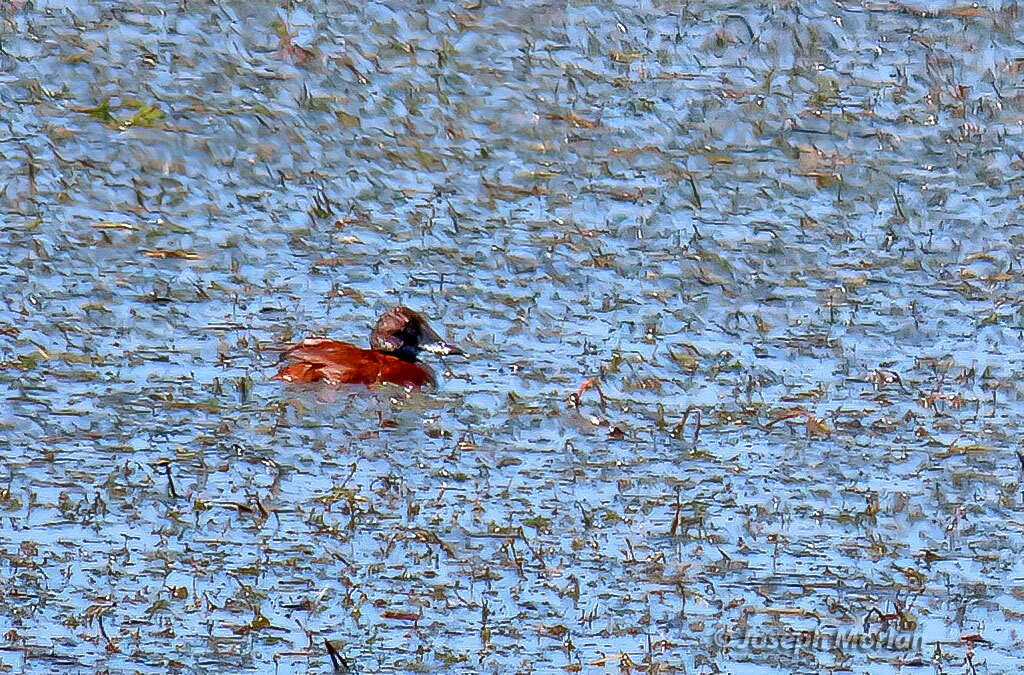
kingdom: Animalia
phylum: Chordata
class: Aves
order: Anseriformes
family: Anatidae
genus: Oxyura
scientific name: Oxyura vittata
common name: Lake duck
